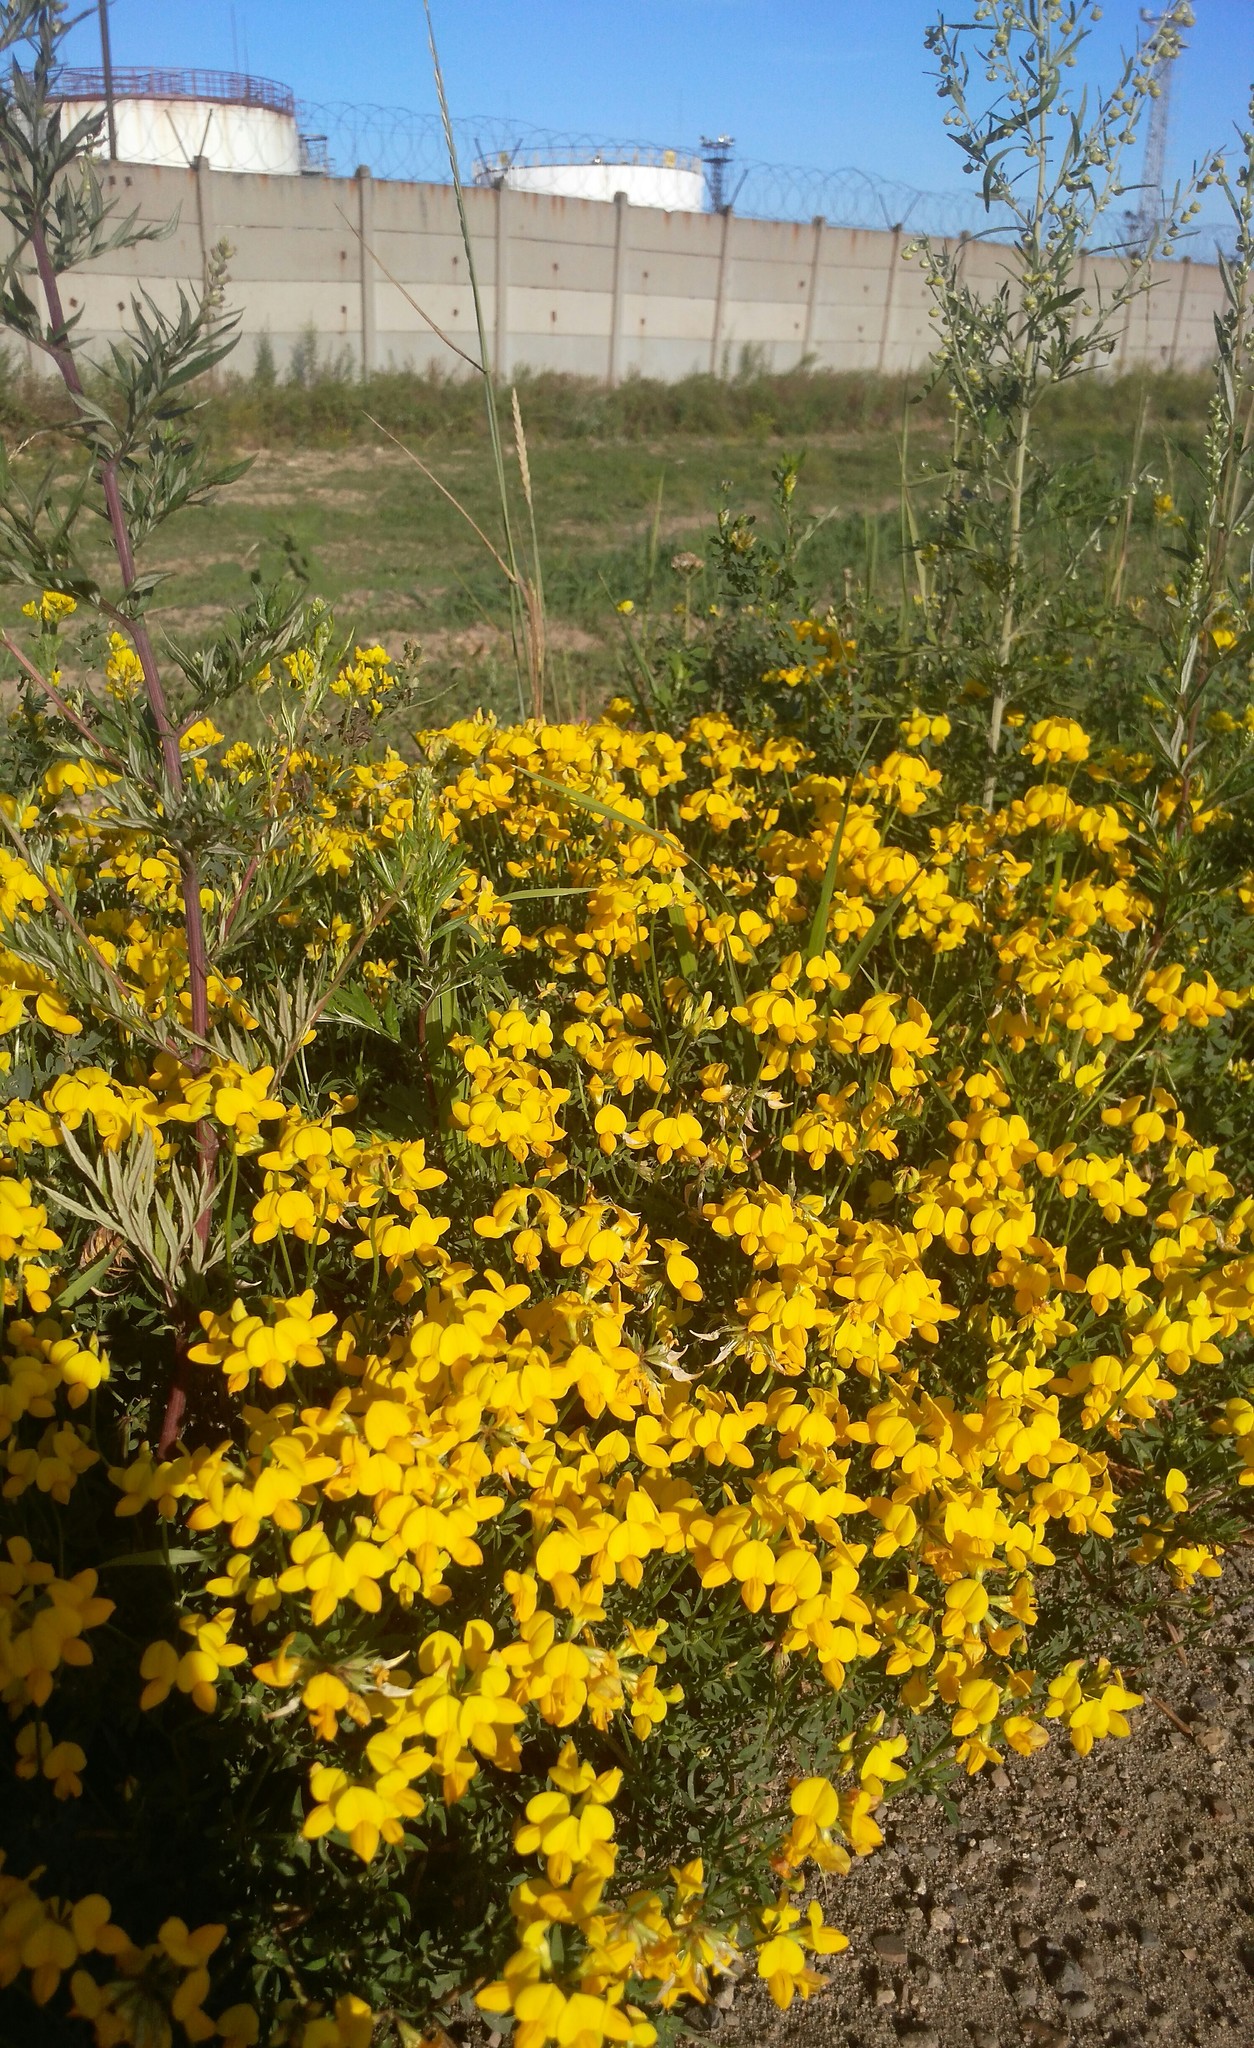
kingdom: Plantae
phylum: Tracheophyta
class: Magnoliopsida
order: Fabales
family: Fabaceae
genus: Lotus
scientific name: Lotus corniculatus
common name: Common bird's-foot-trefoil
